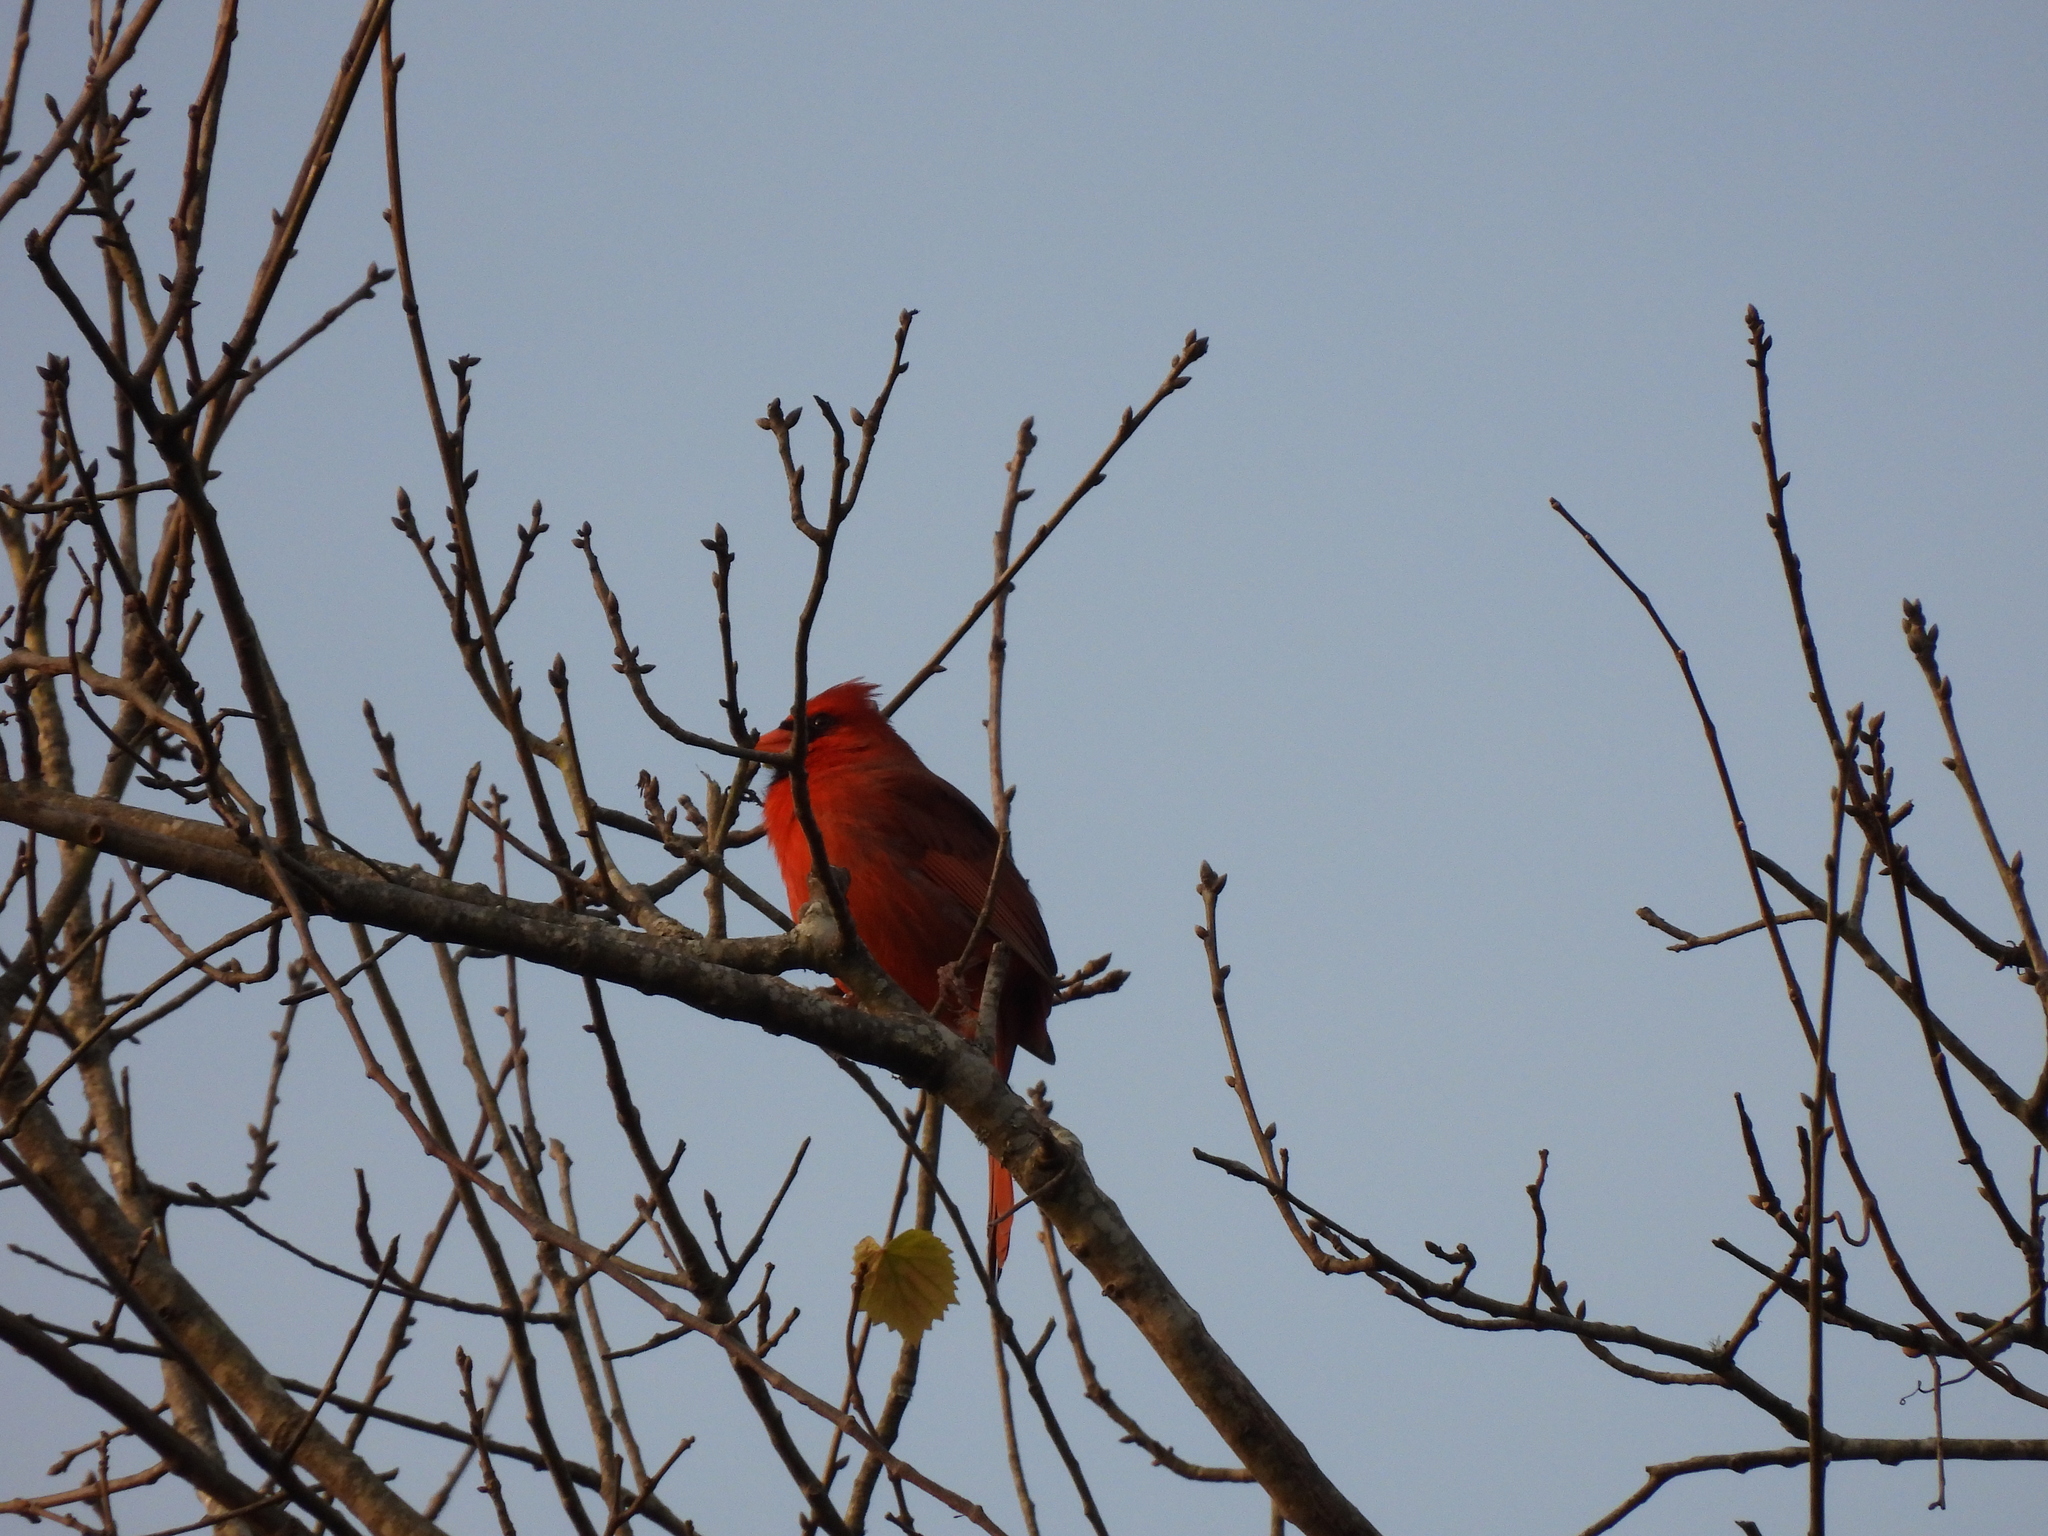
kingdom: Animalia
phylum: Chordata
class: Aves
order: Passeriformes
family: Cardinalidae
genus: Cardinalis
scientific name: Cardinalis cardinalis
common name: Northern cardinal
